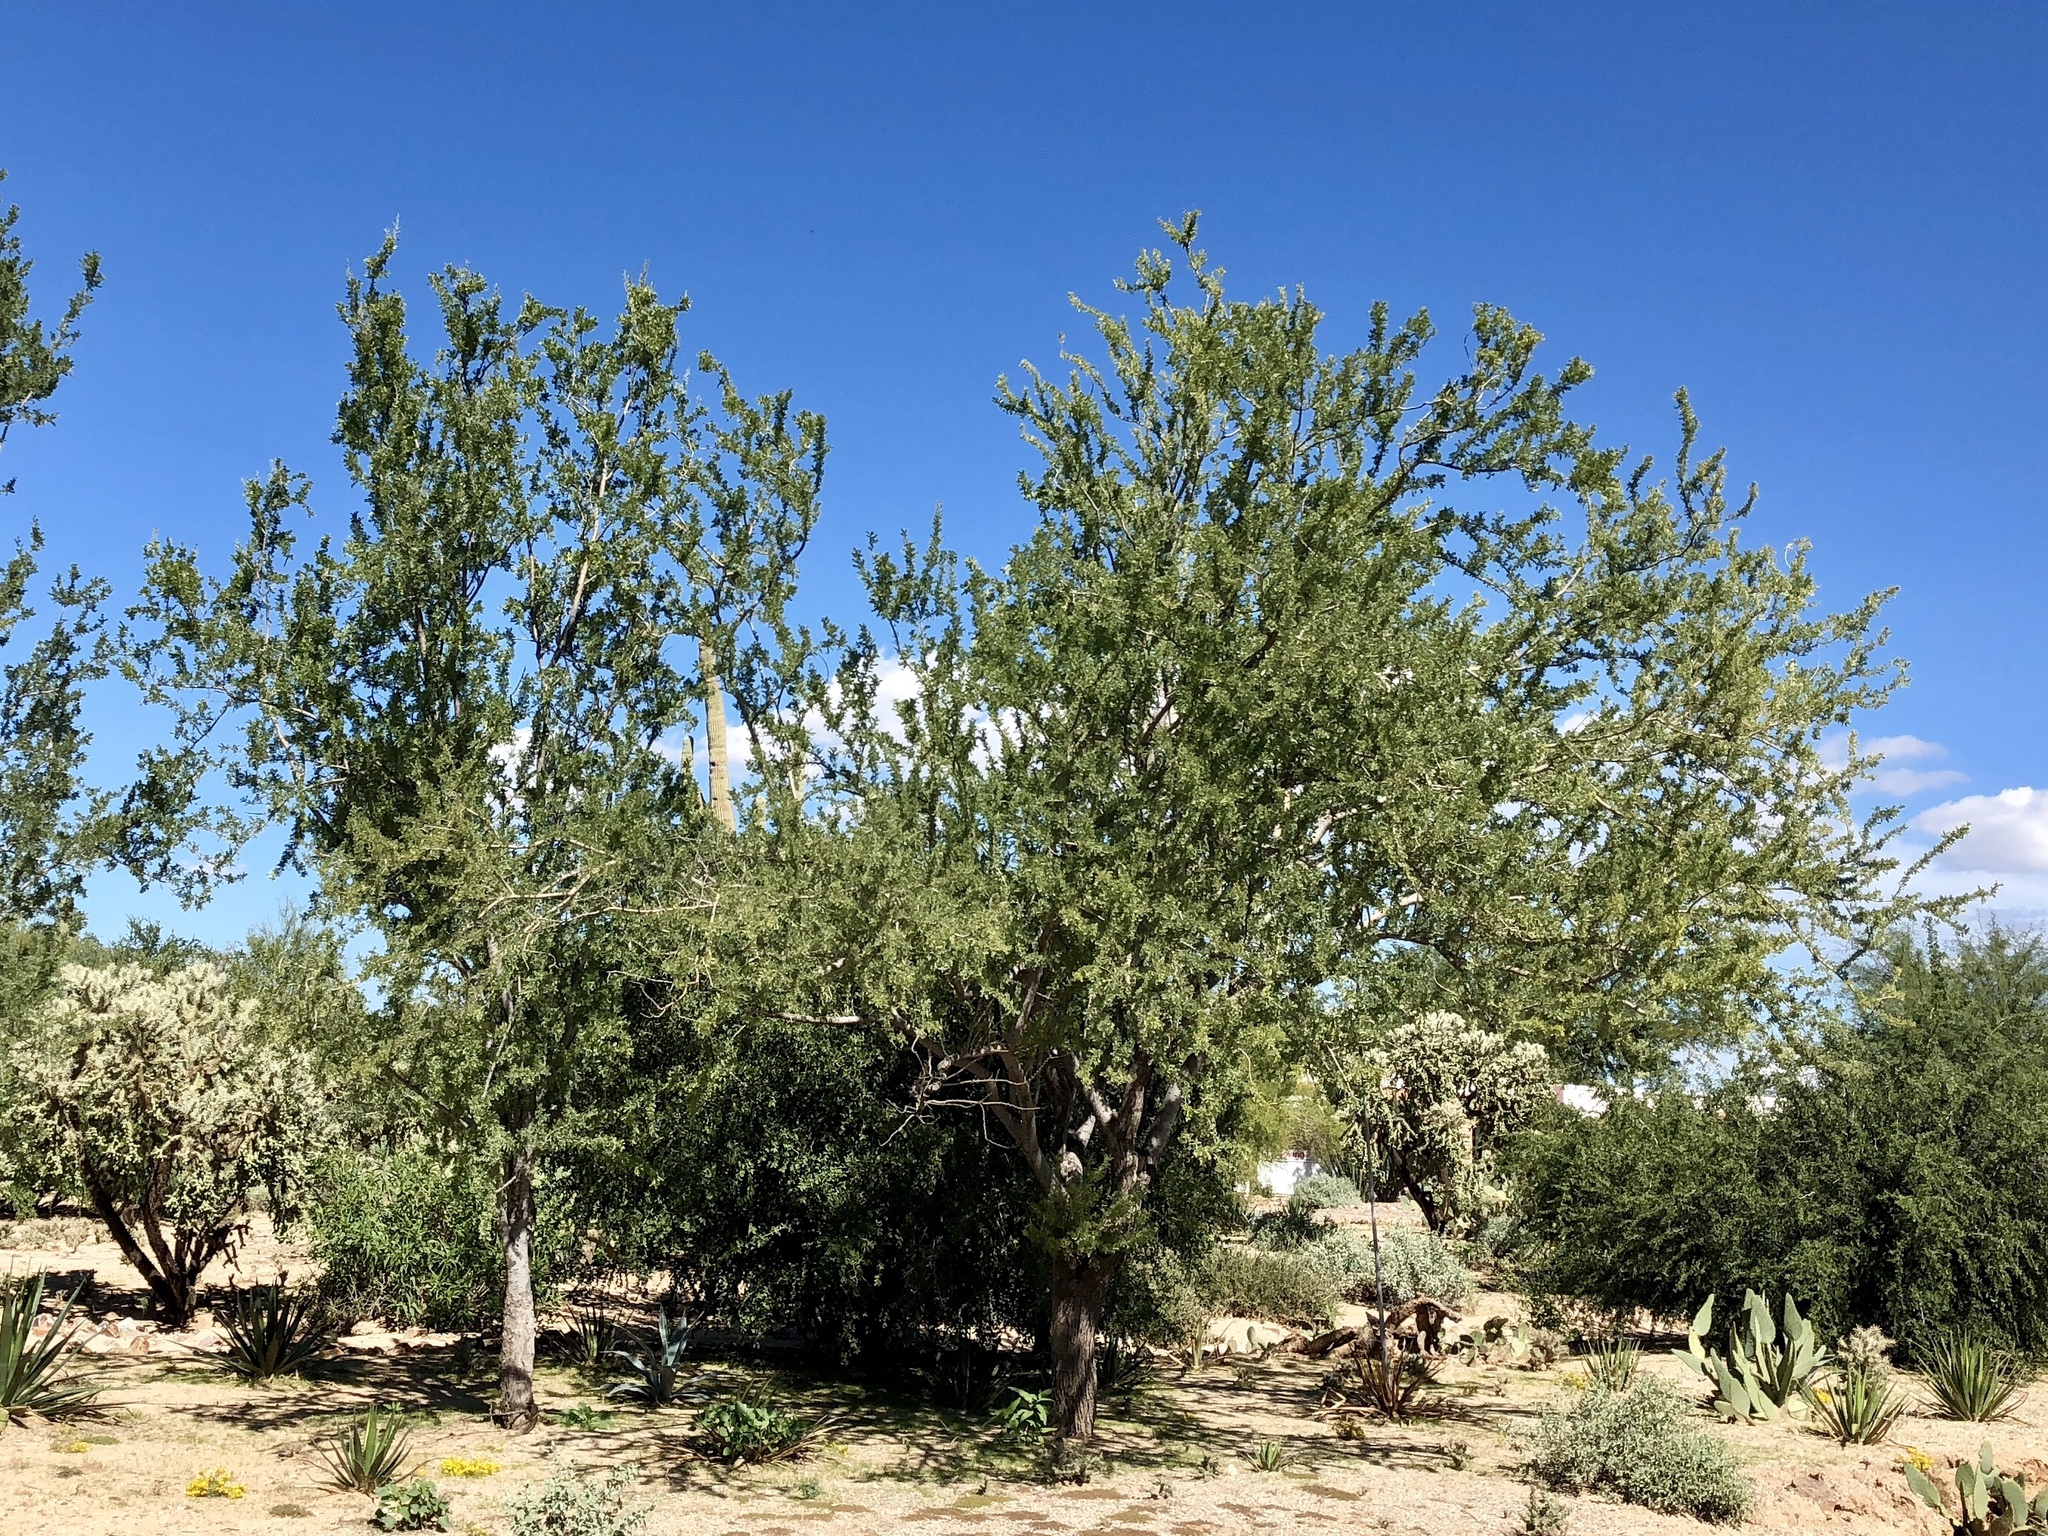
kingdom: Plantae
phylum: Tracheophyta
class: Magnoliopsida
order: Fabales
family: Fabaceae
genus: Olneya
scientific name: Olneya tesota
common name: Desert ironwood
